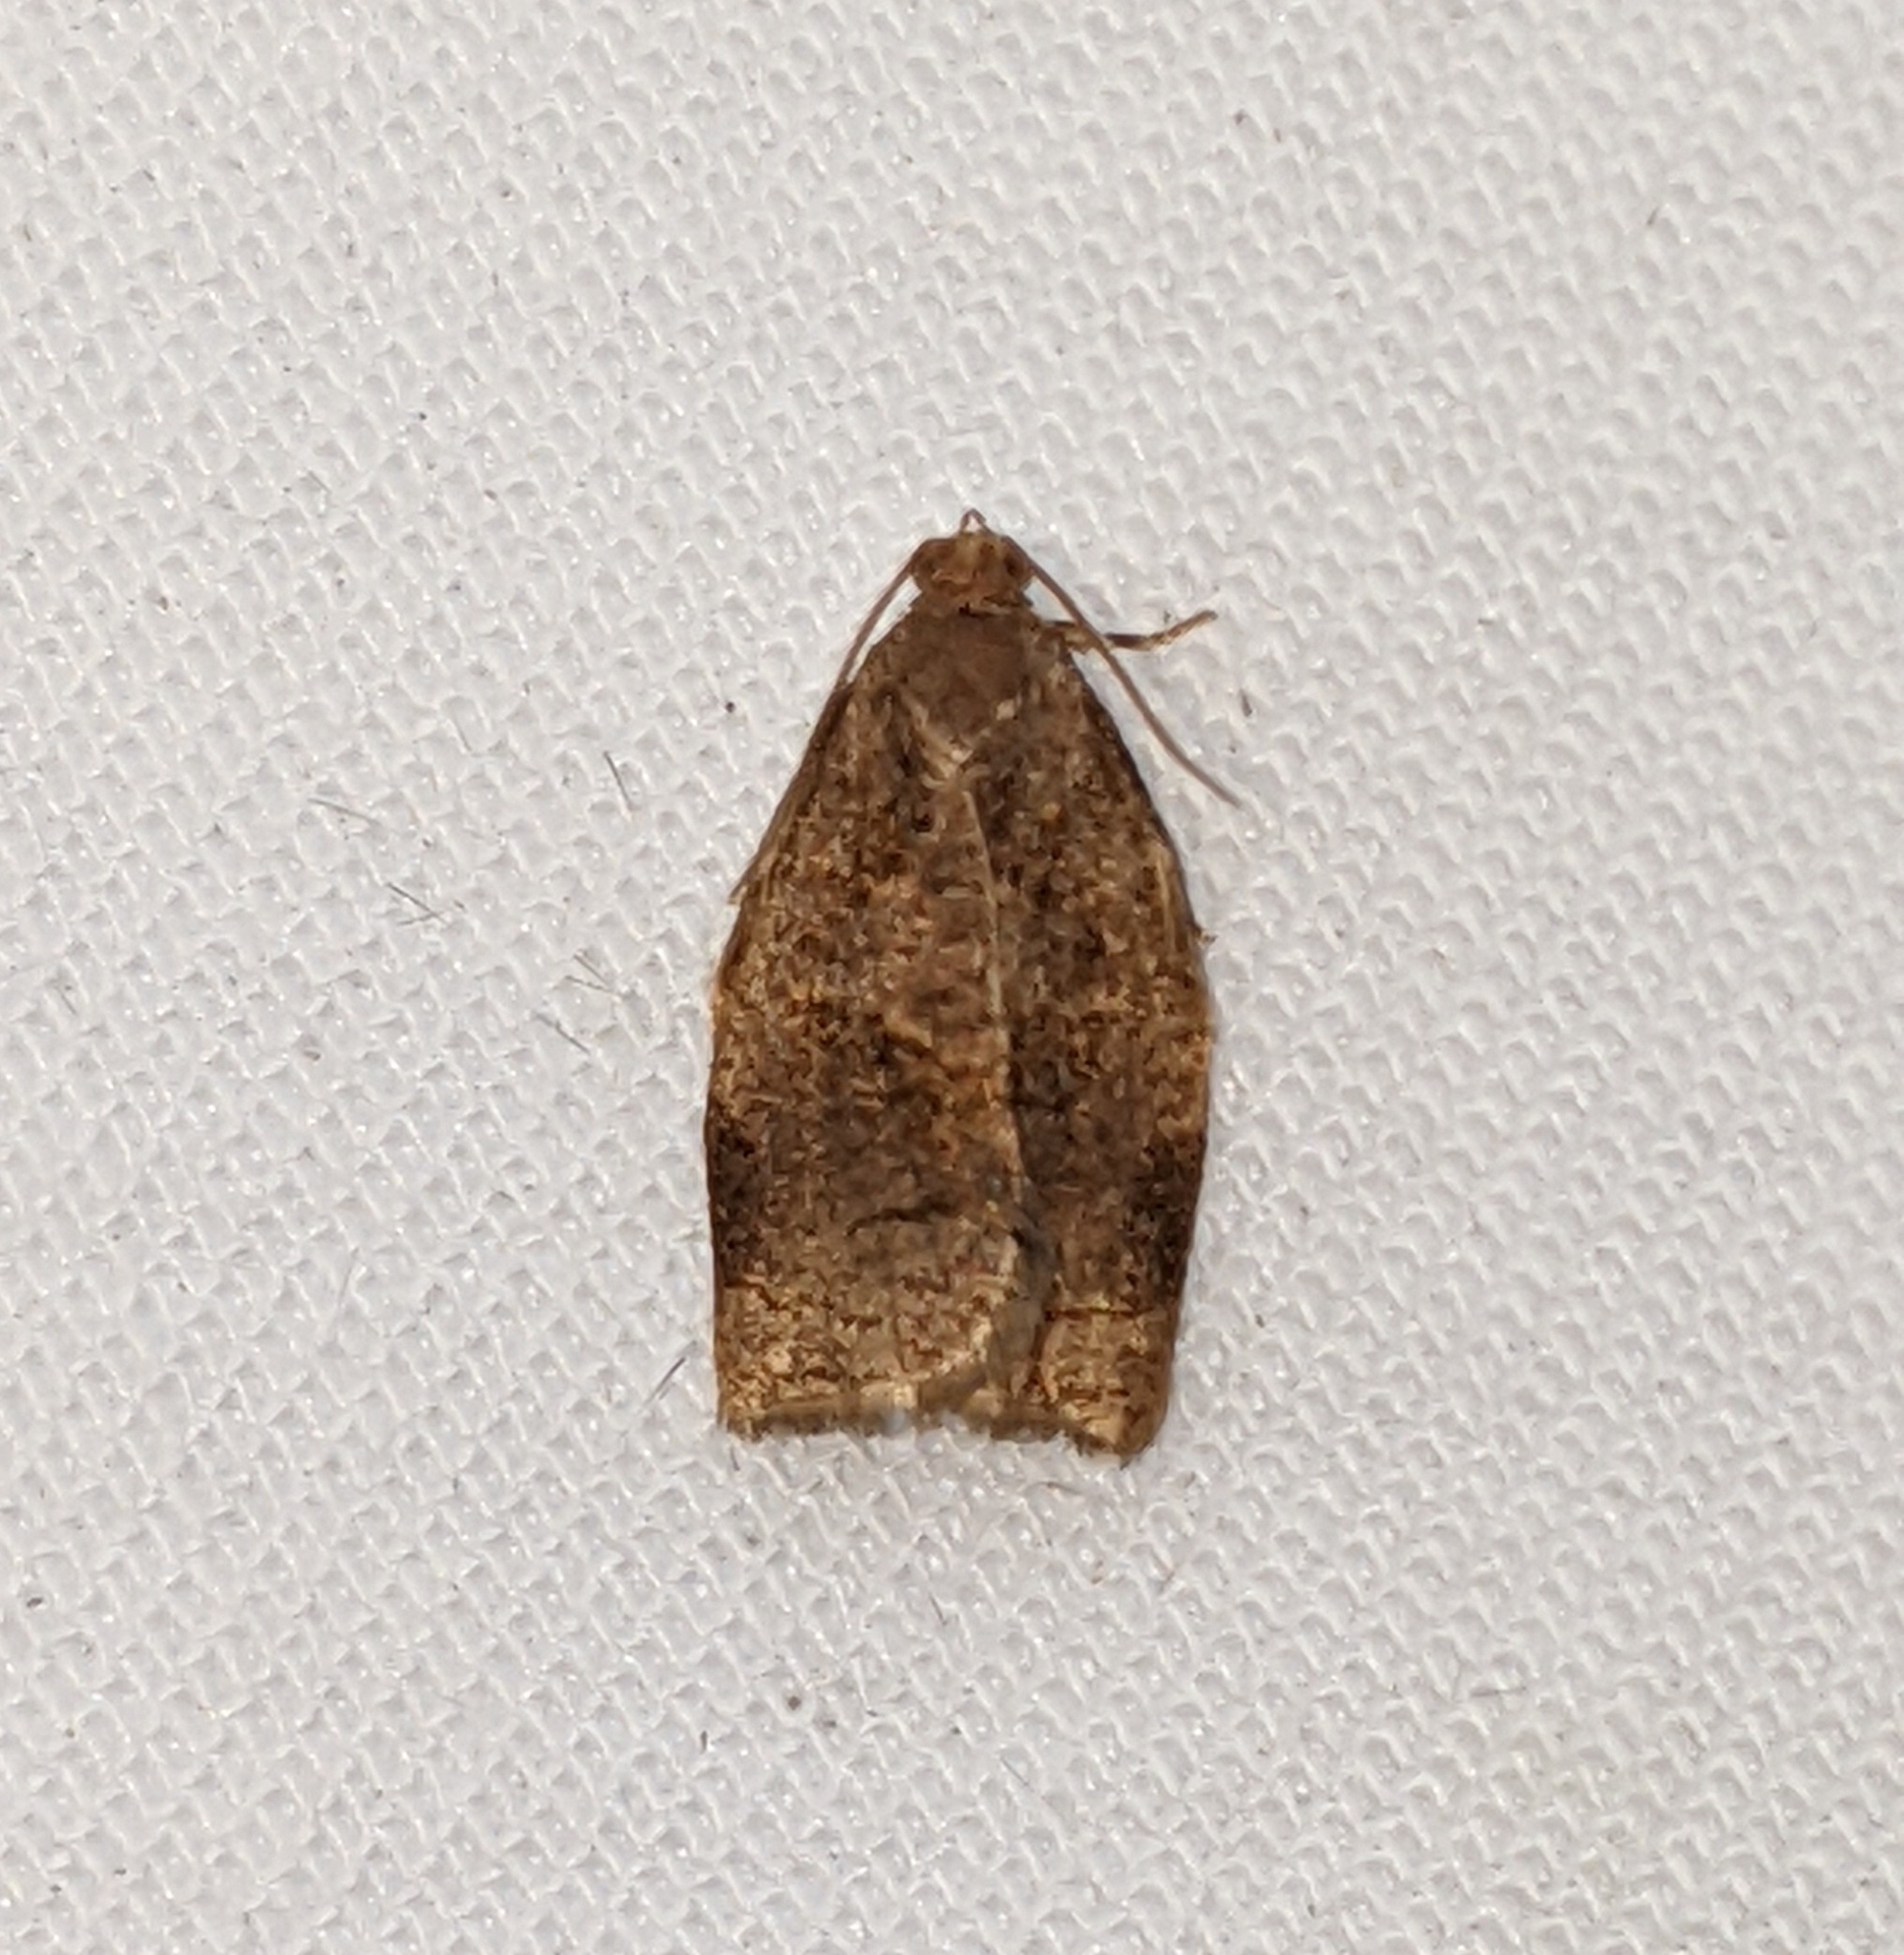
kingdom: Animalia
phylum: Arthropoda
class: Insecta
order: Lepidoptera
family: Tortricidae
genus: Archips
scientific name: Archips rosana
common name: Rose tortrix
